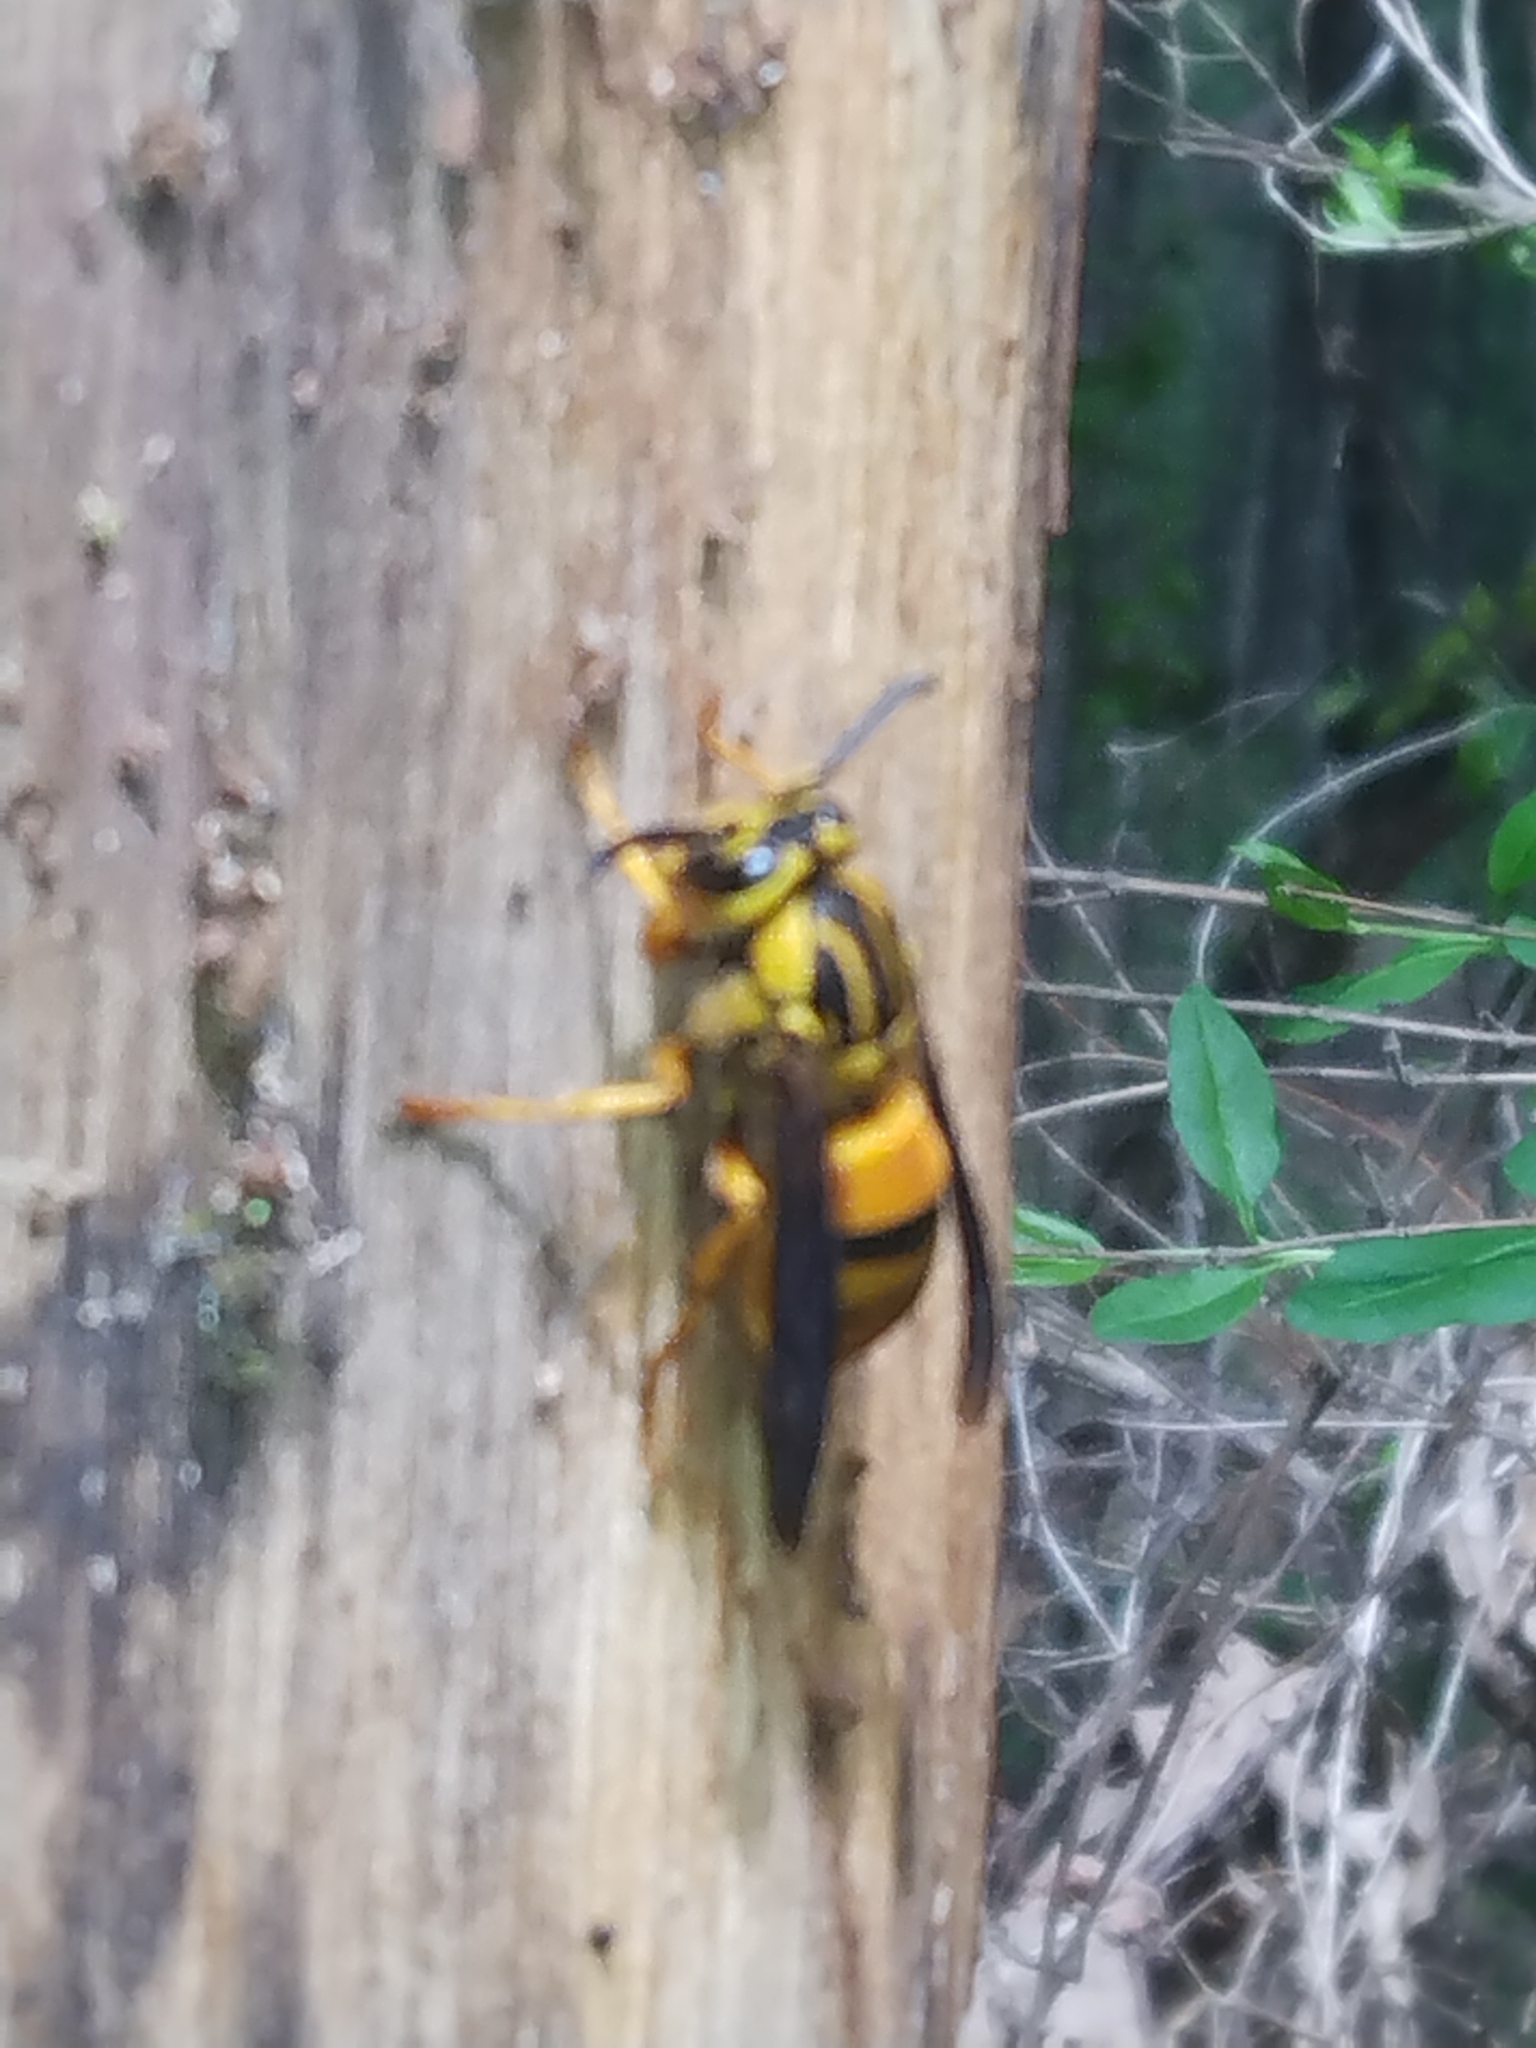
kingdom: Animalia
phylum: Arthropoda
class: Insecta
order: Hymenoptera
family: Vespidae
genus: Vespula
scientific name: Vespula squamosa
